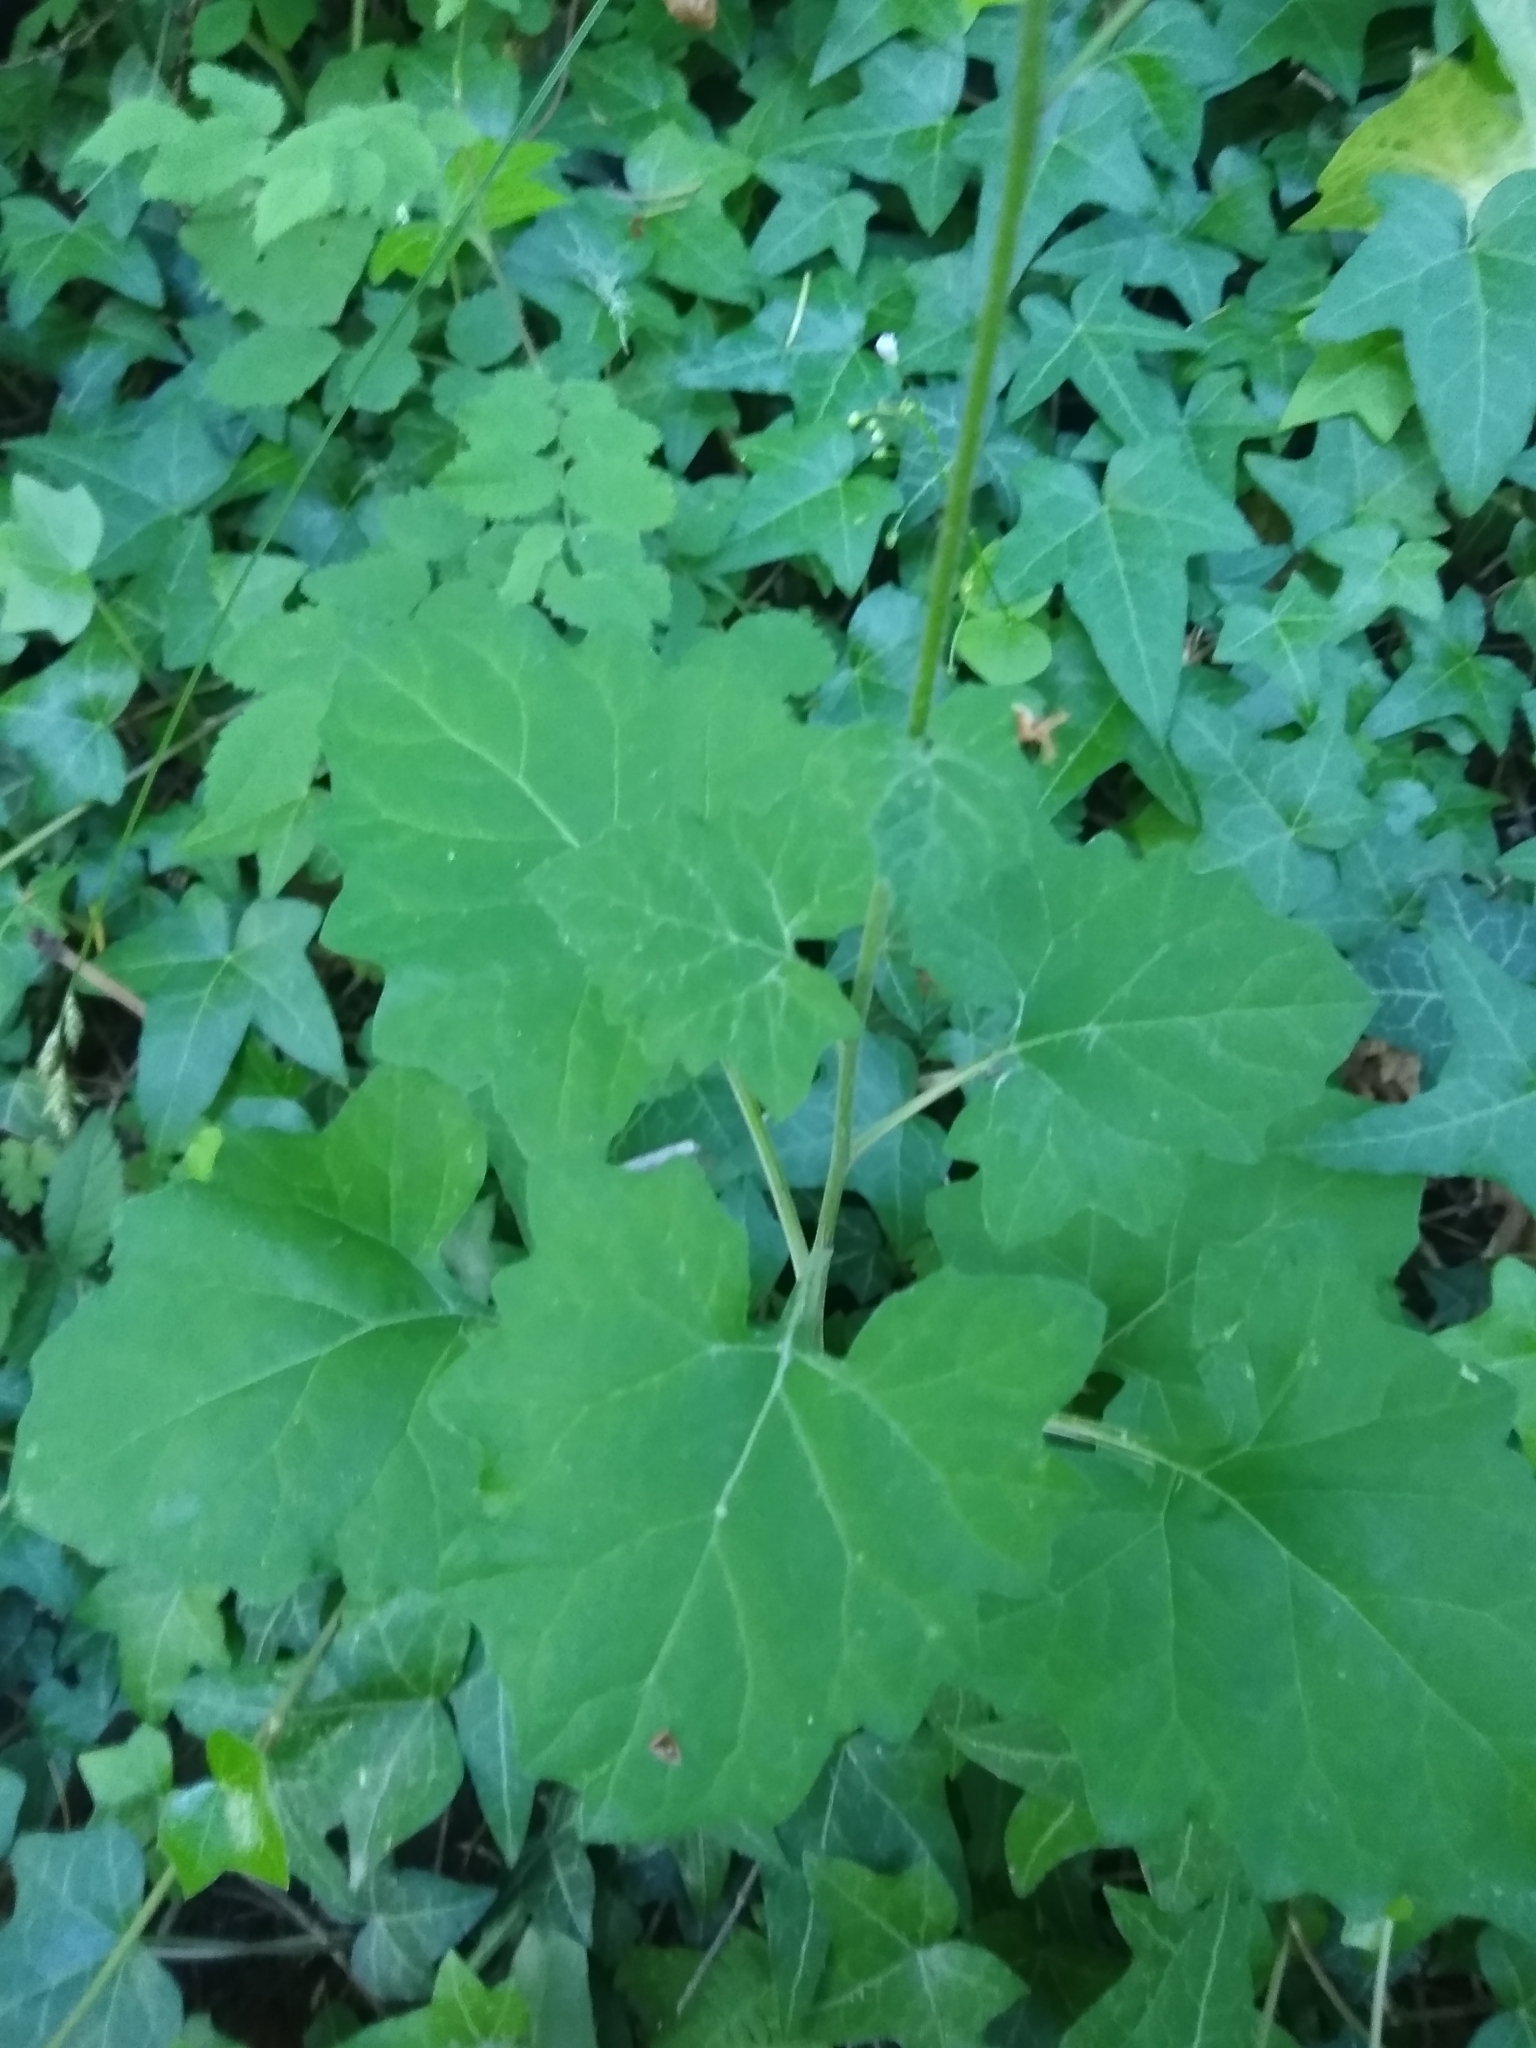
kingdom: Plantae
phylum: Tracheophyta
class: Magnoliopsida
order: Asterales
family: Asteraceae
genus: Adenocaulon
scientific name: Adenocaulon bicolor
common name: Trailplant
